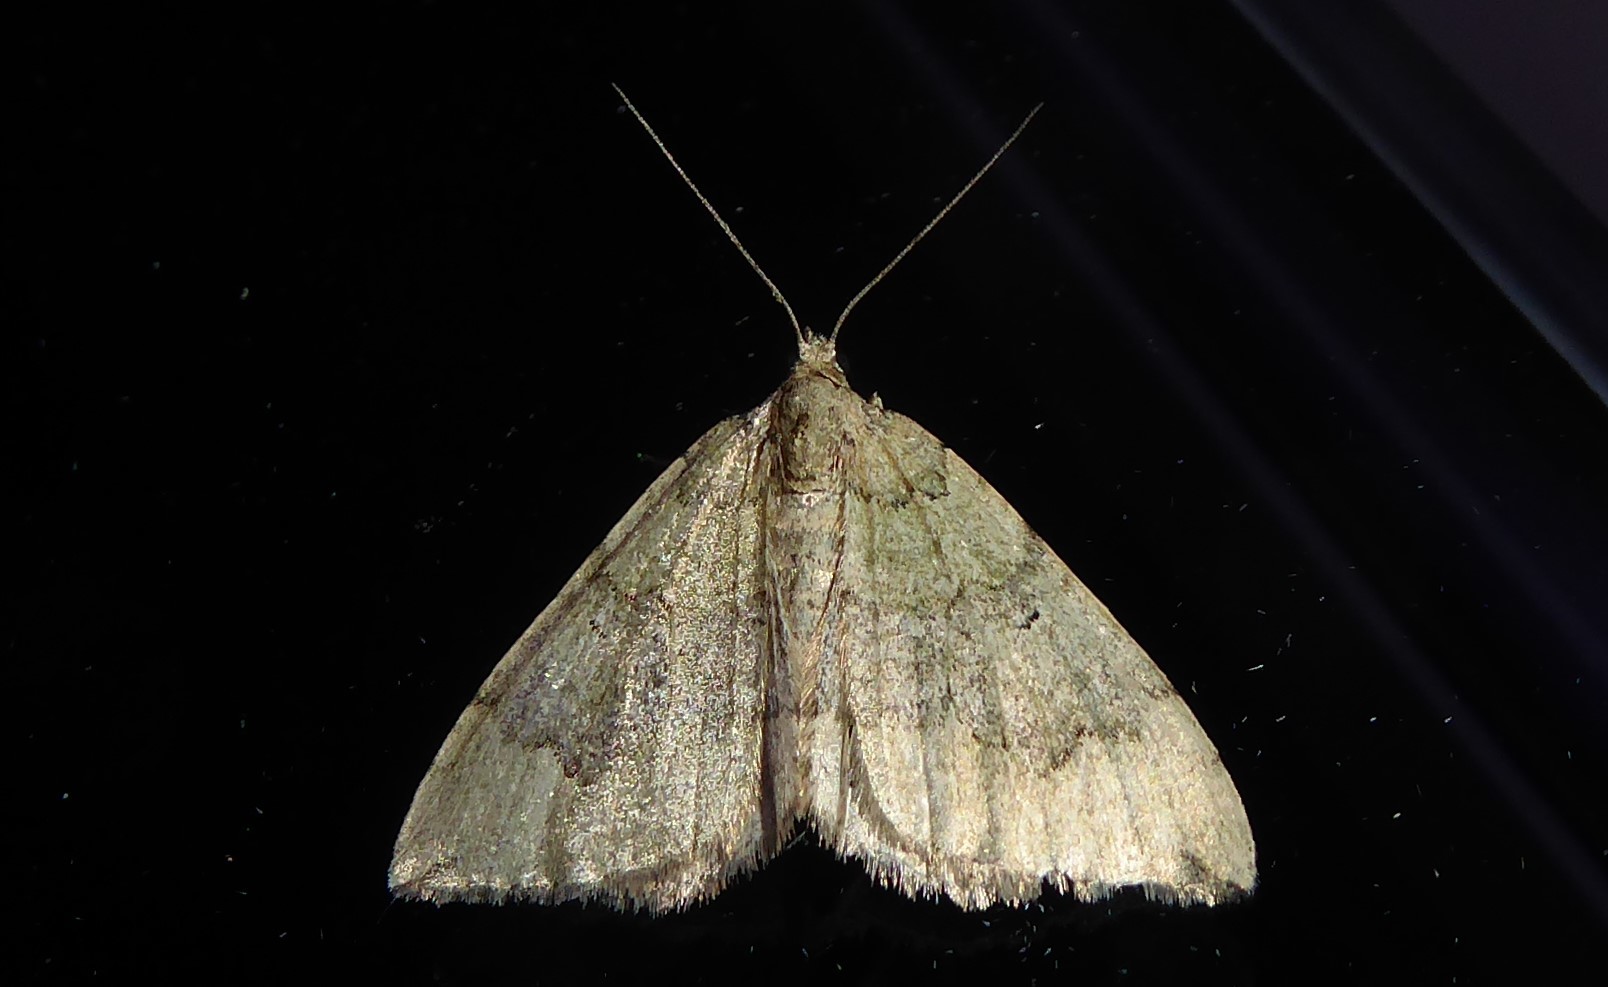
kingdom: Animalia
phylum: Arthropoda
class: Insecta
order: Lepidoptera
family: Geometridae
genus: Epyaxa
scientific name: Epyaxa rosearia
